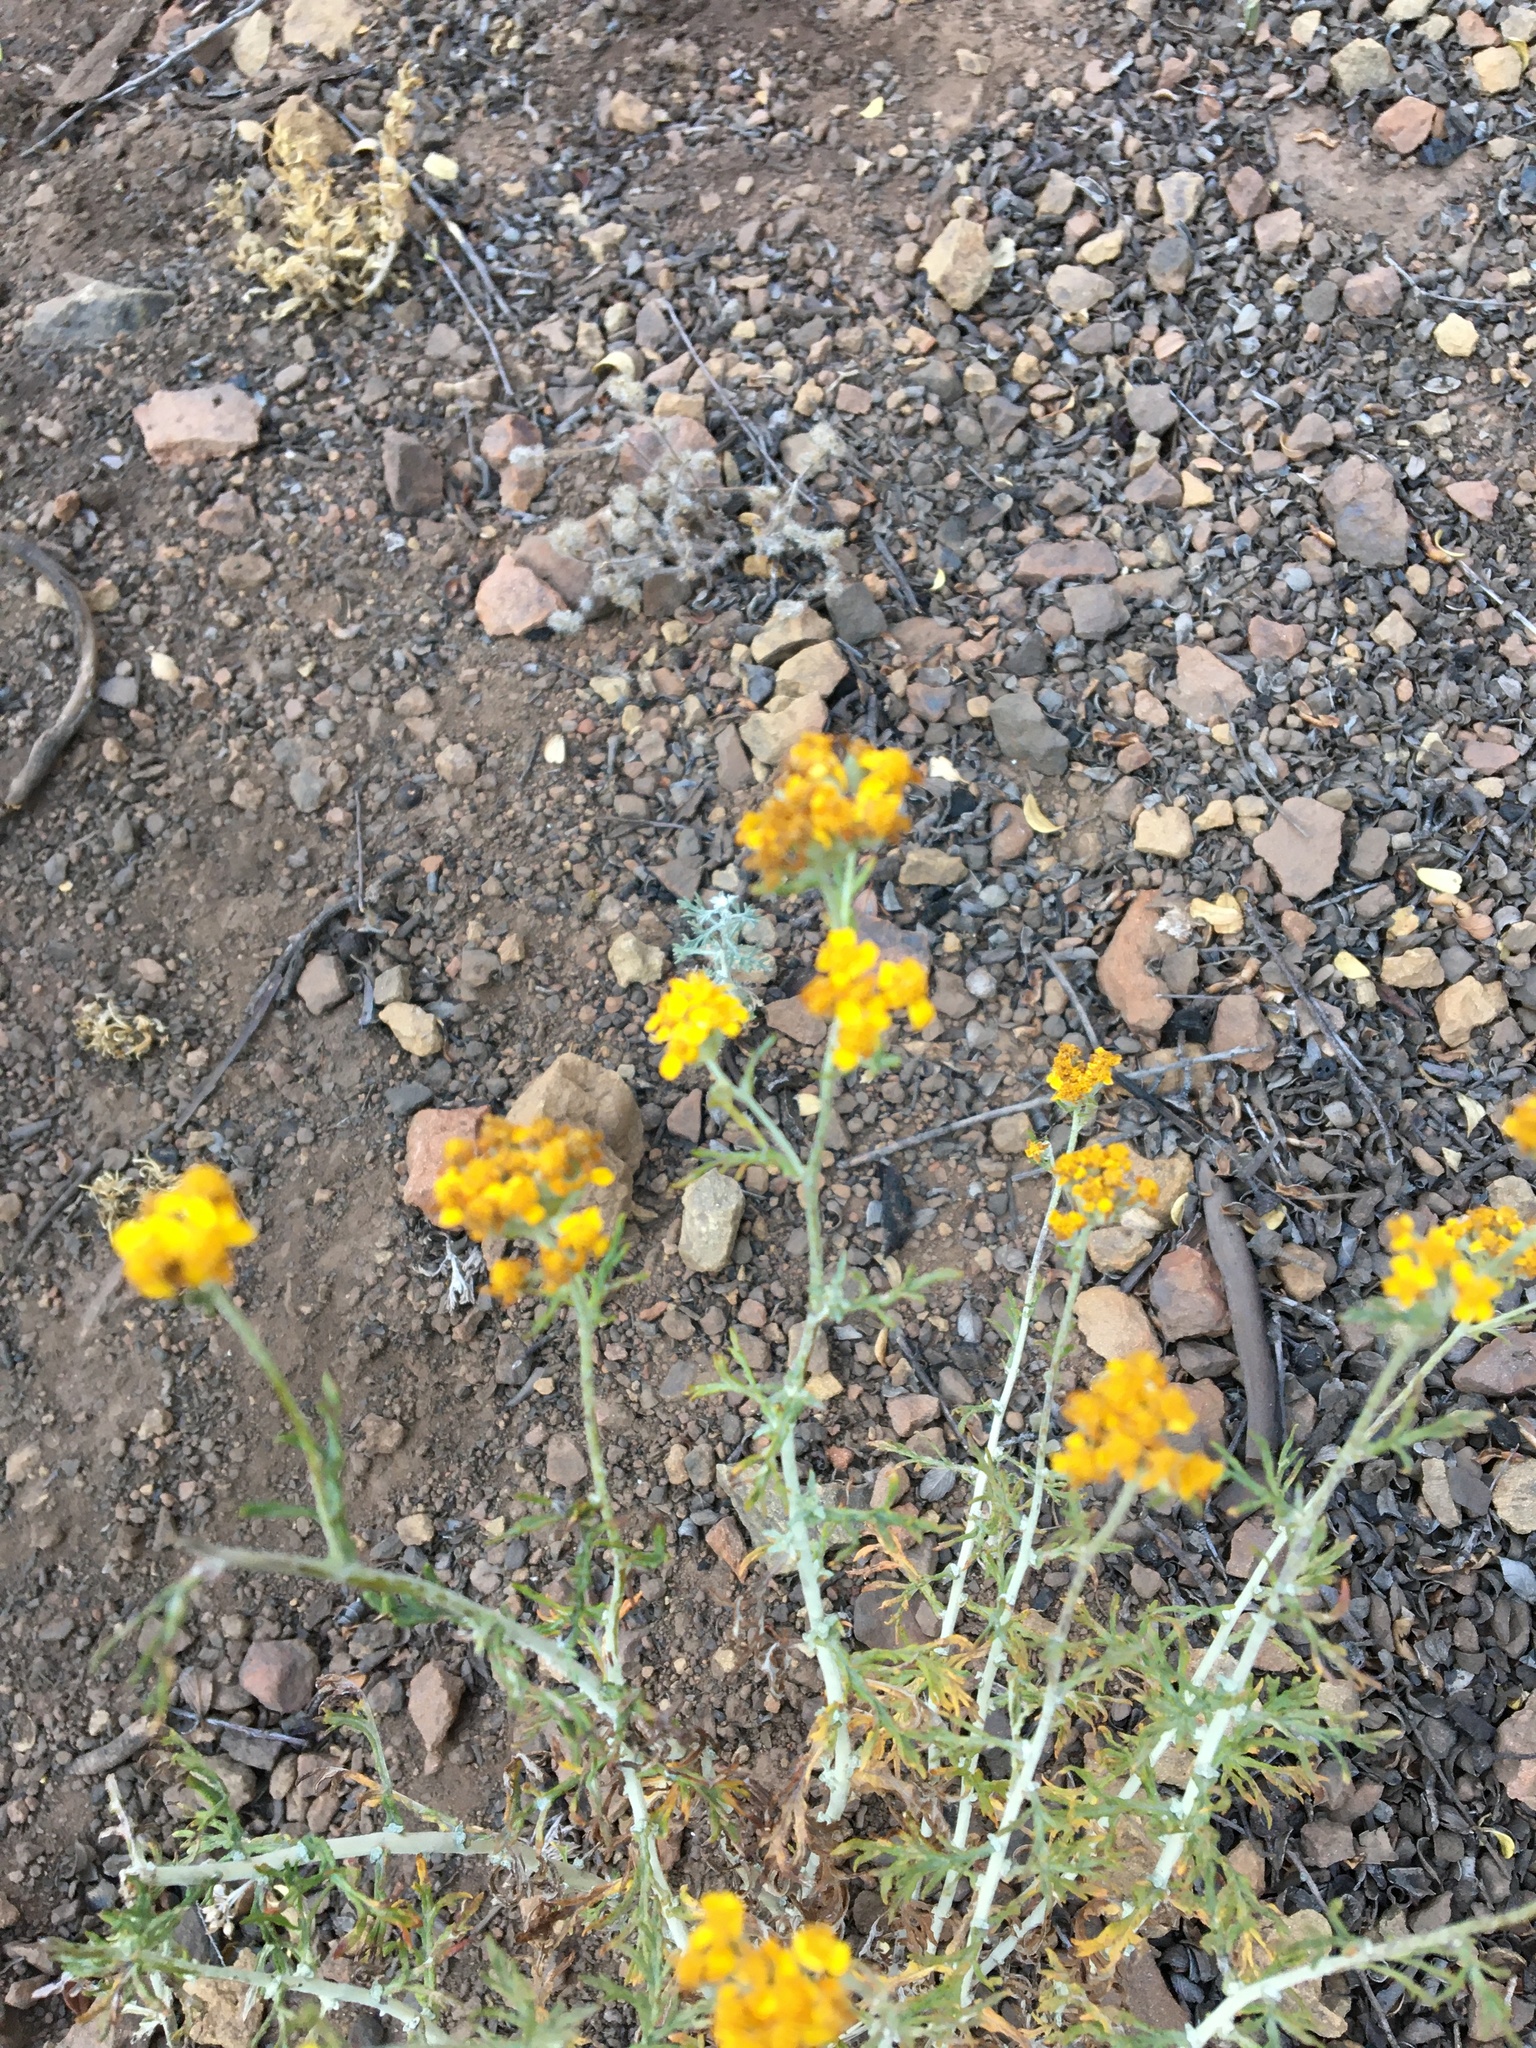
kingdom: Plantae
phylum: Tracheophyta
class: Magnoliopsida
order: Asterales
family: Asteraceae
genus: Eriophyllum
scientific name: Eriophyllum confertiflorum
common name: Golden-yarrow
